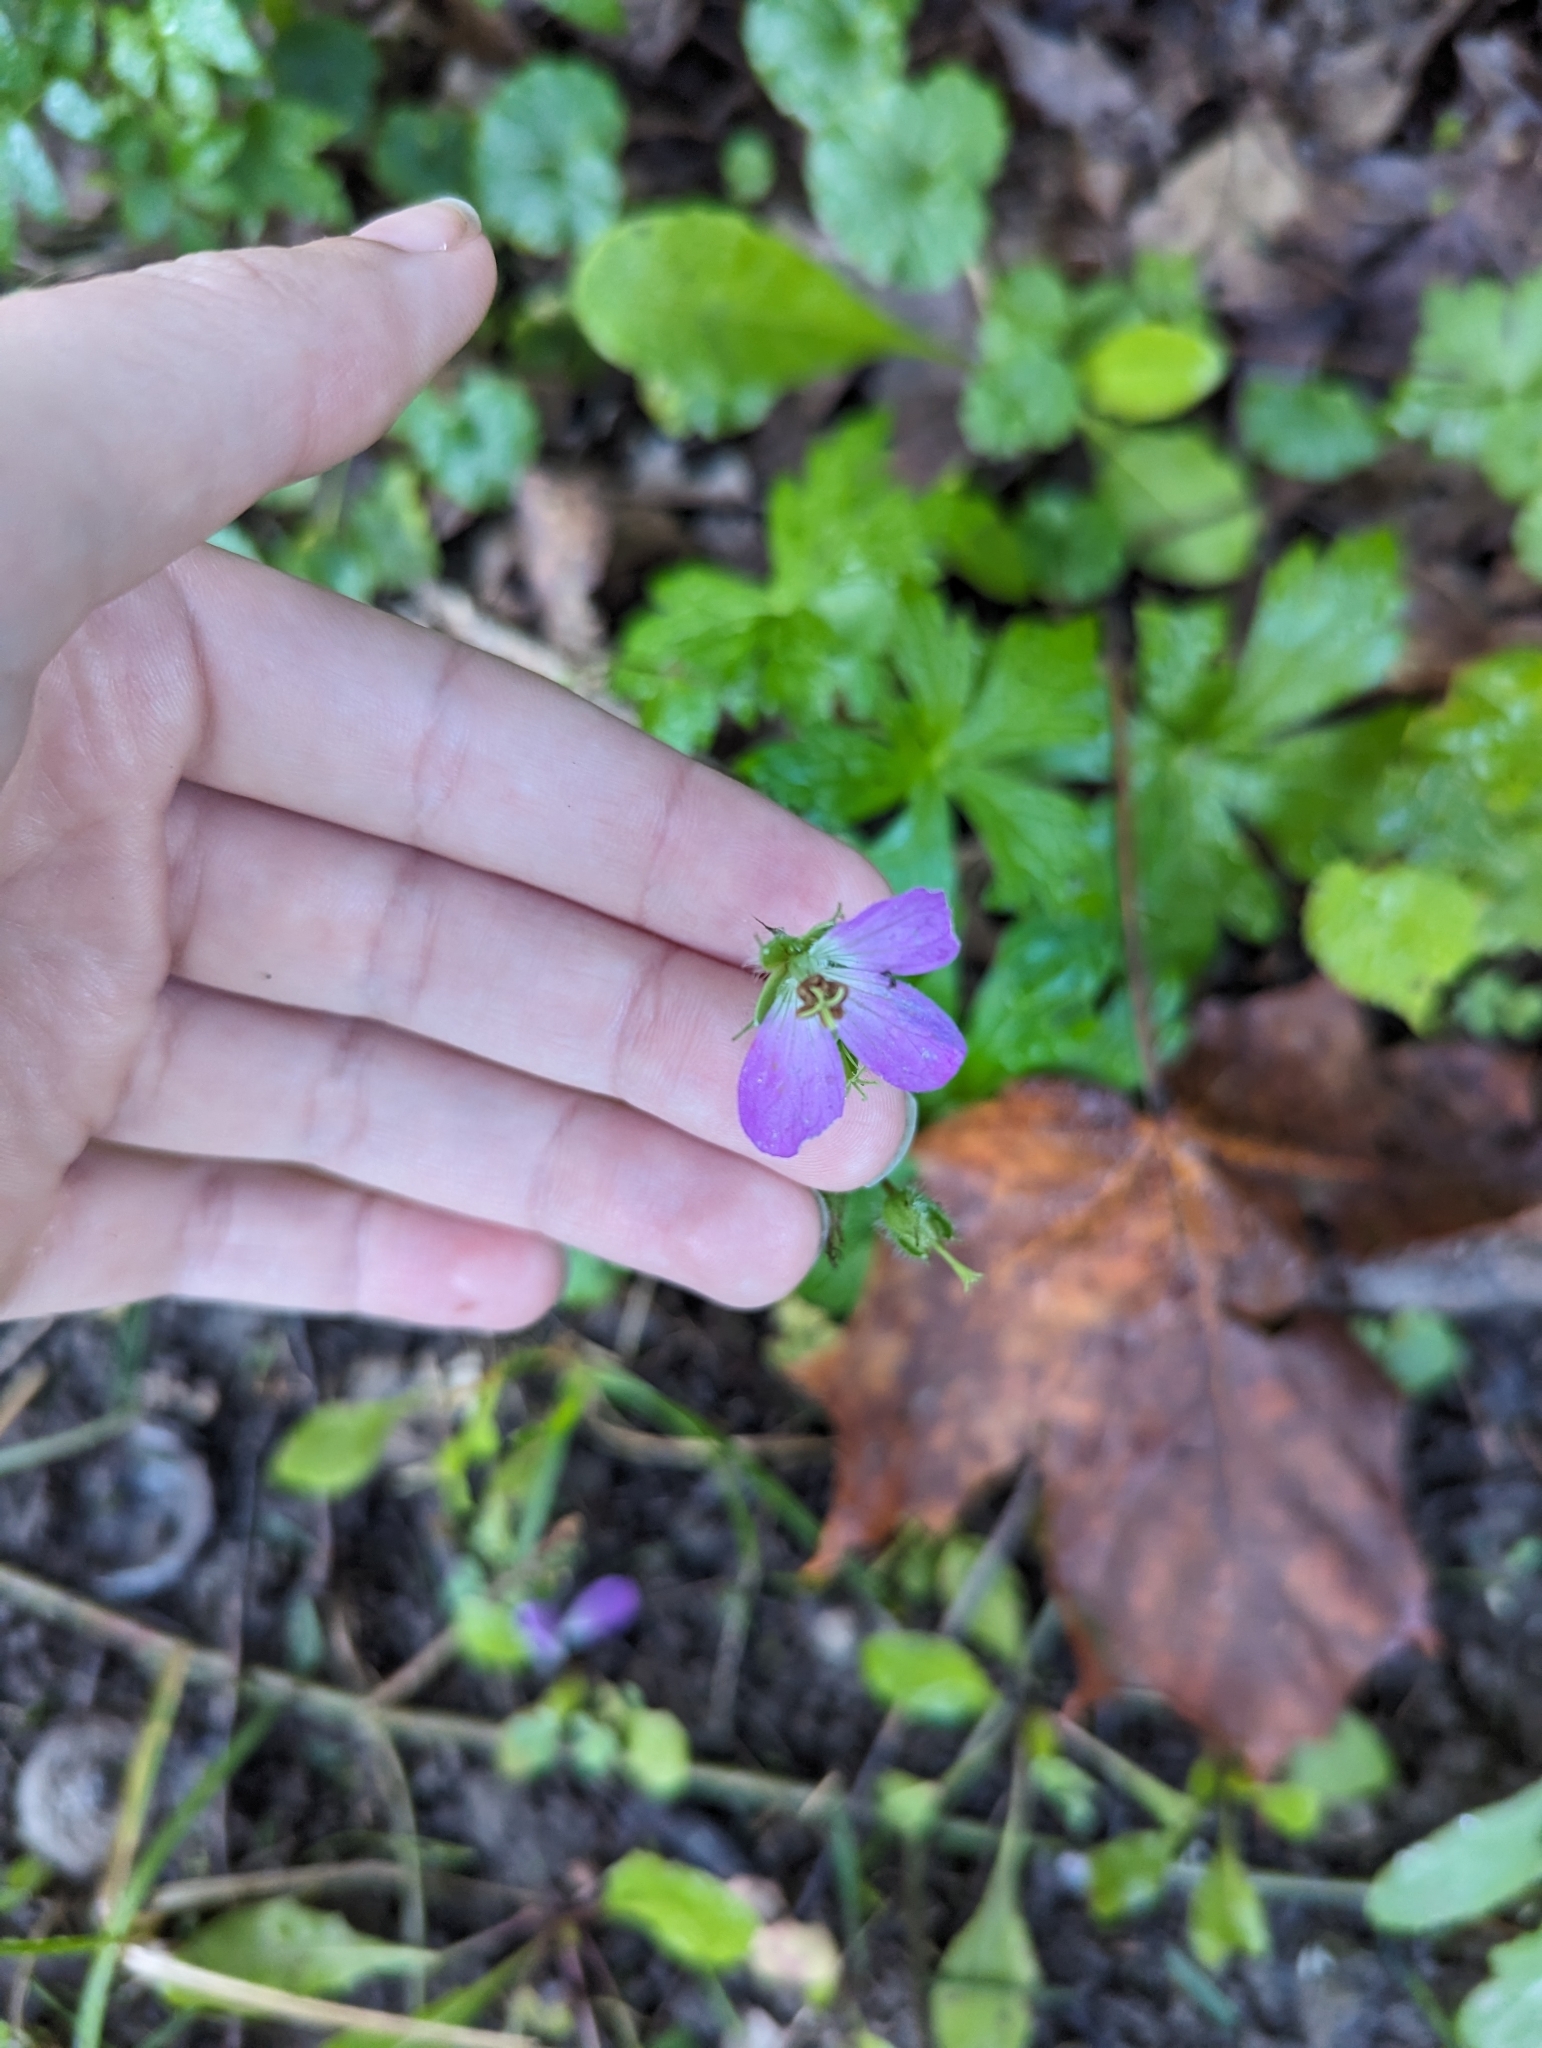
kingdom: Plantae
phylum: Tracheophyta
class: Magnoliopsida
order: Geraniales
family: Geraniaceae
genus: Geranium
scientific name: Geranium maculatum
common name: Spotted geranium
